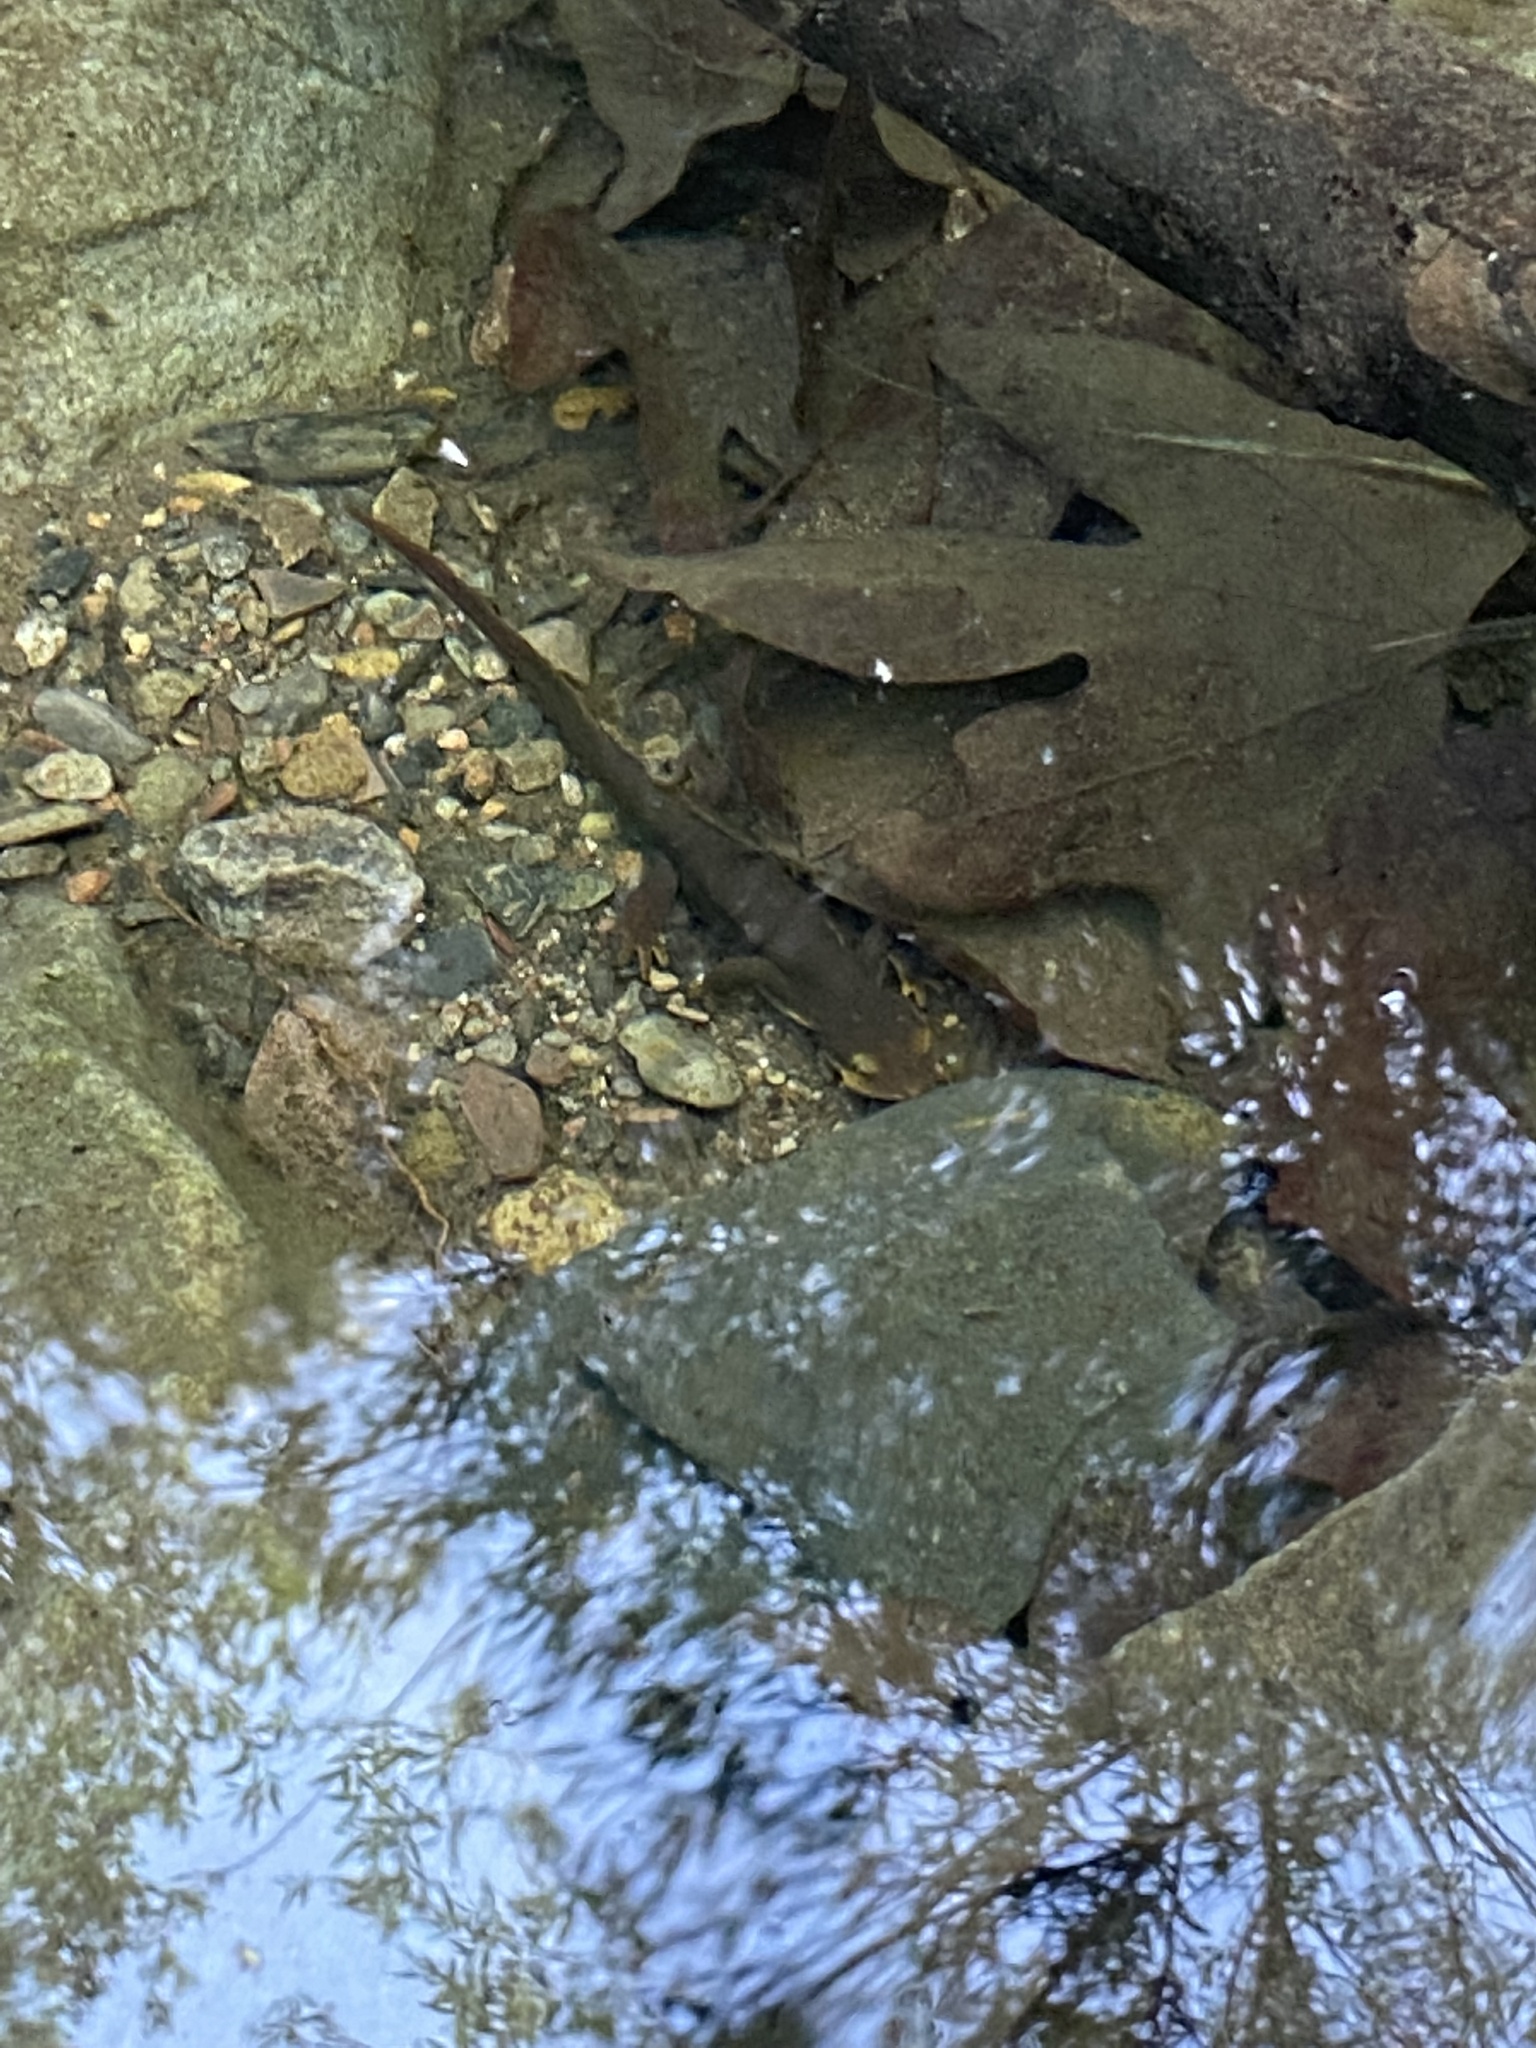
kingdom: Animalia
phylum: Chordata
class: Amphibia
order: Caudata
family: Salamandridae
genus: Taricha
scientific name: Taricha torosa
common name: California newt
